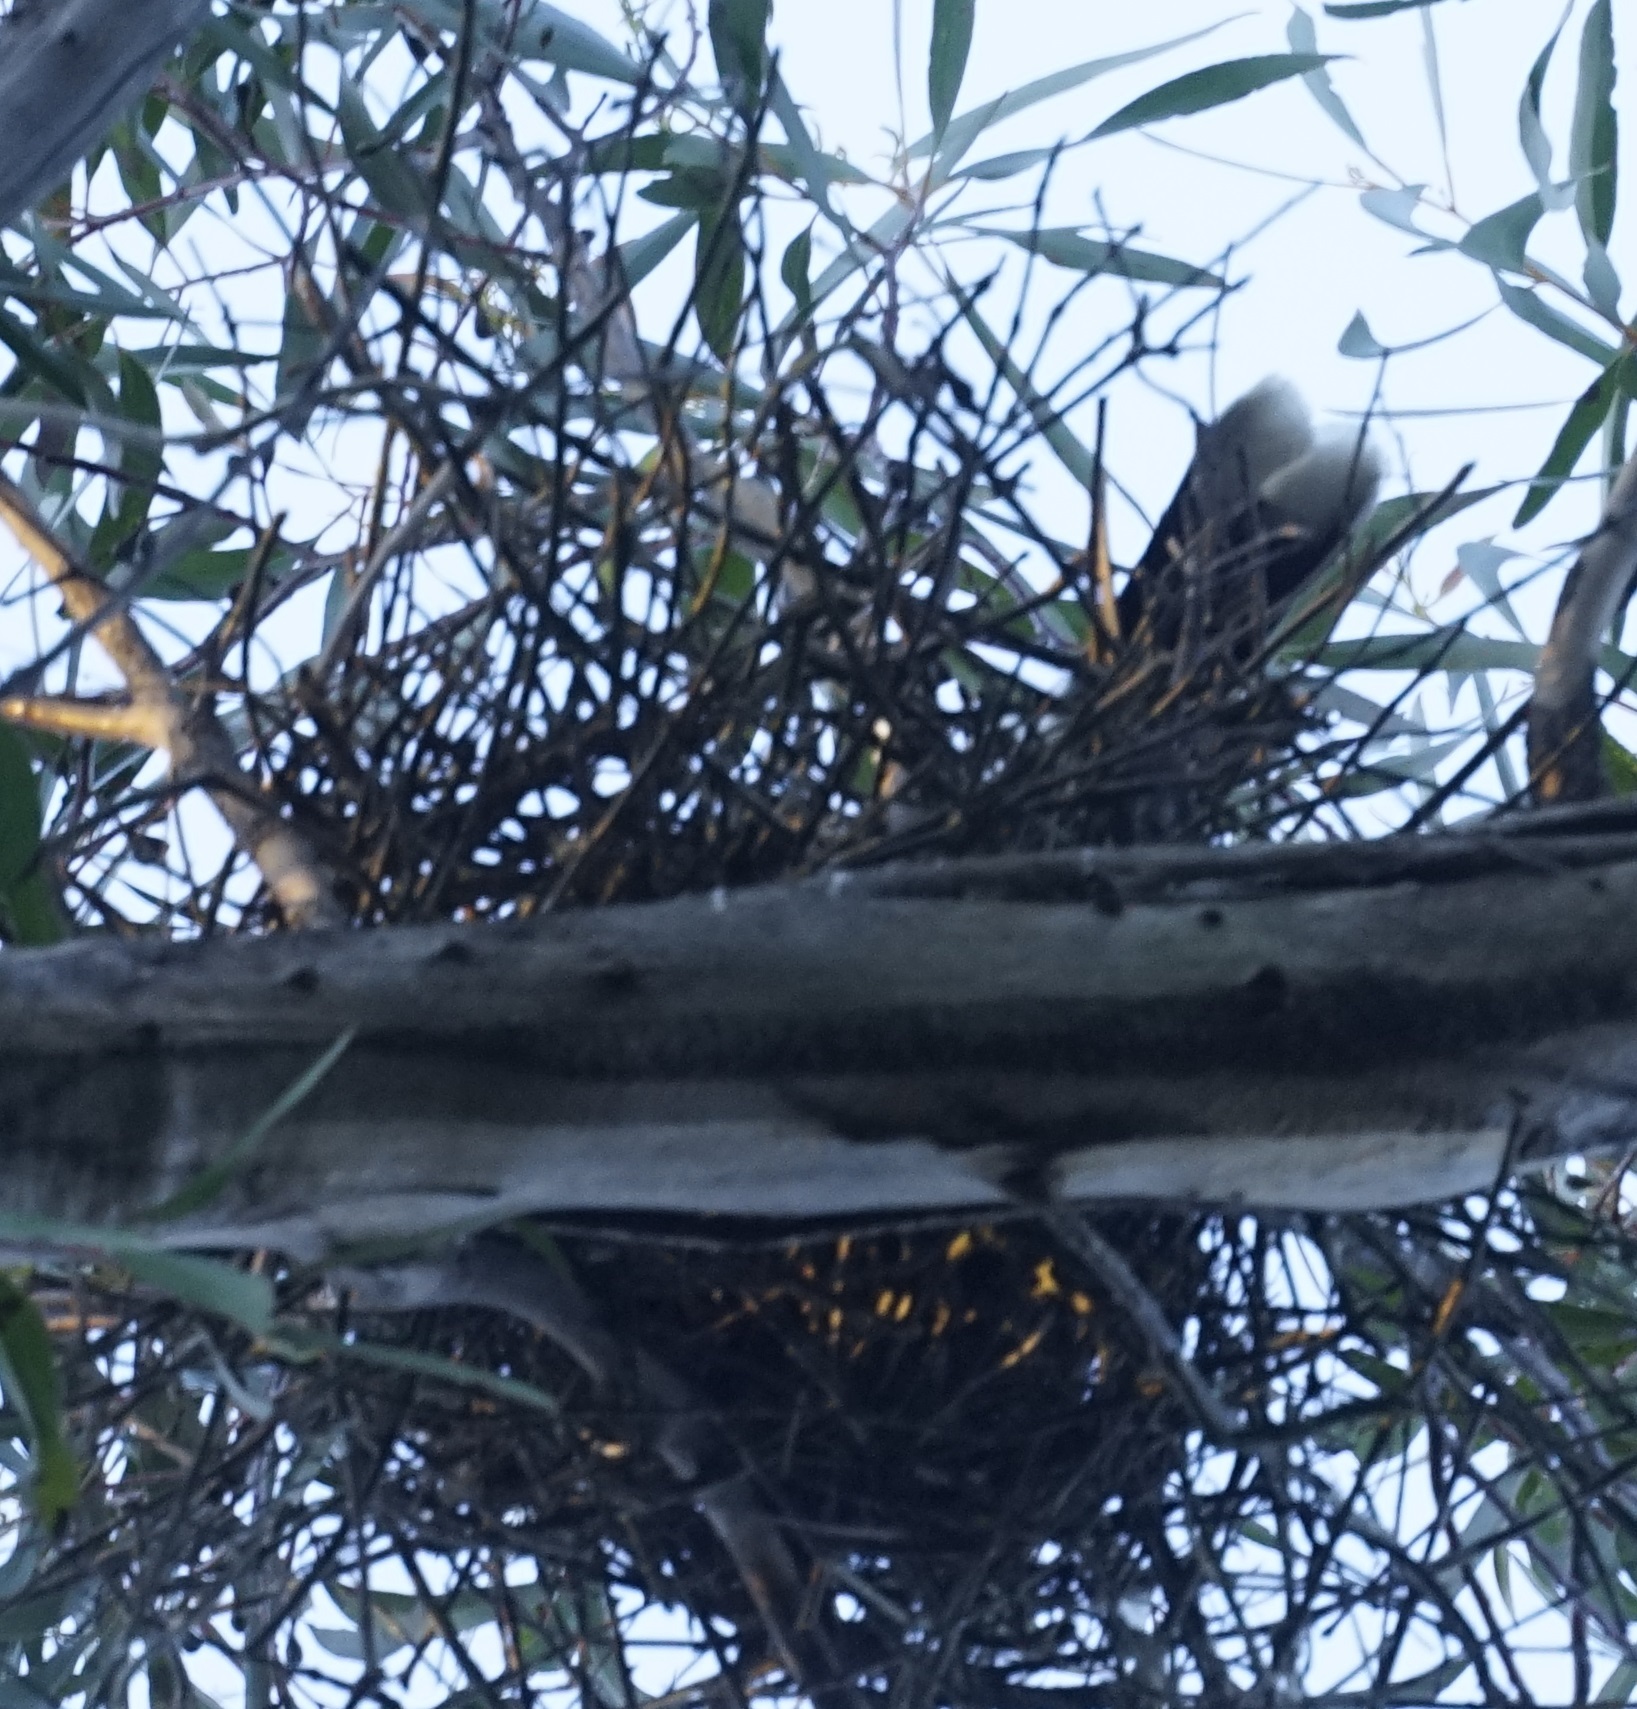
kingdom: Animalia
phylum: Chordata
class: Aves
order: Passeriformes
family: Cracticidae
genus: Strepera
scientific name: Strepera graculina
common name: Pied currawong
